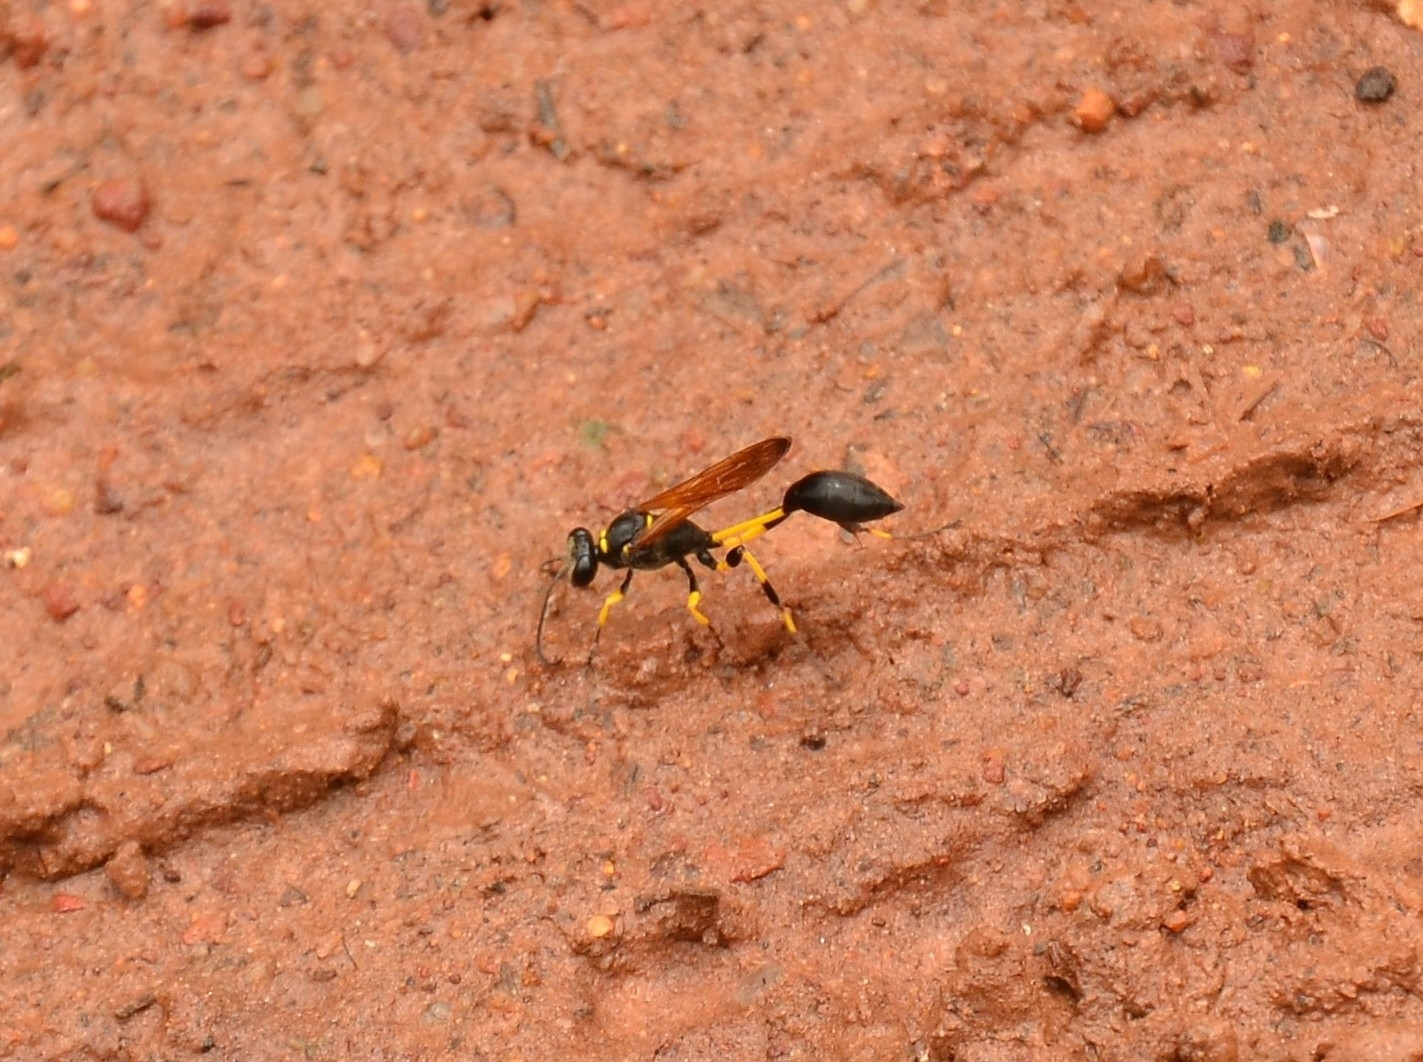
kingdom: Animalia
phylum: Arthropoda
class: Insecta
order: Hymenoptera
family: Sphecidae
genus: Sceliphron
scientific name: Sceliphron madraspatanum
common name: Mud dauber
